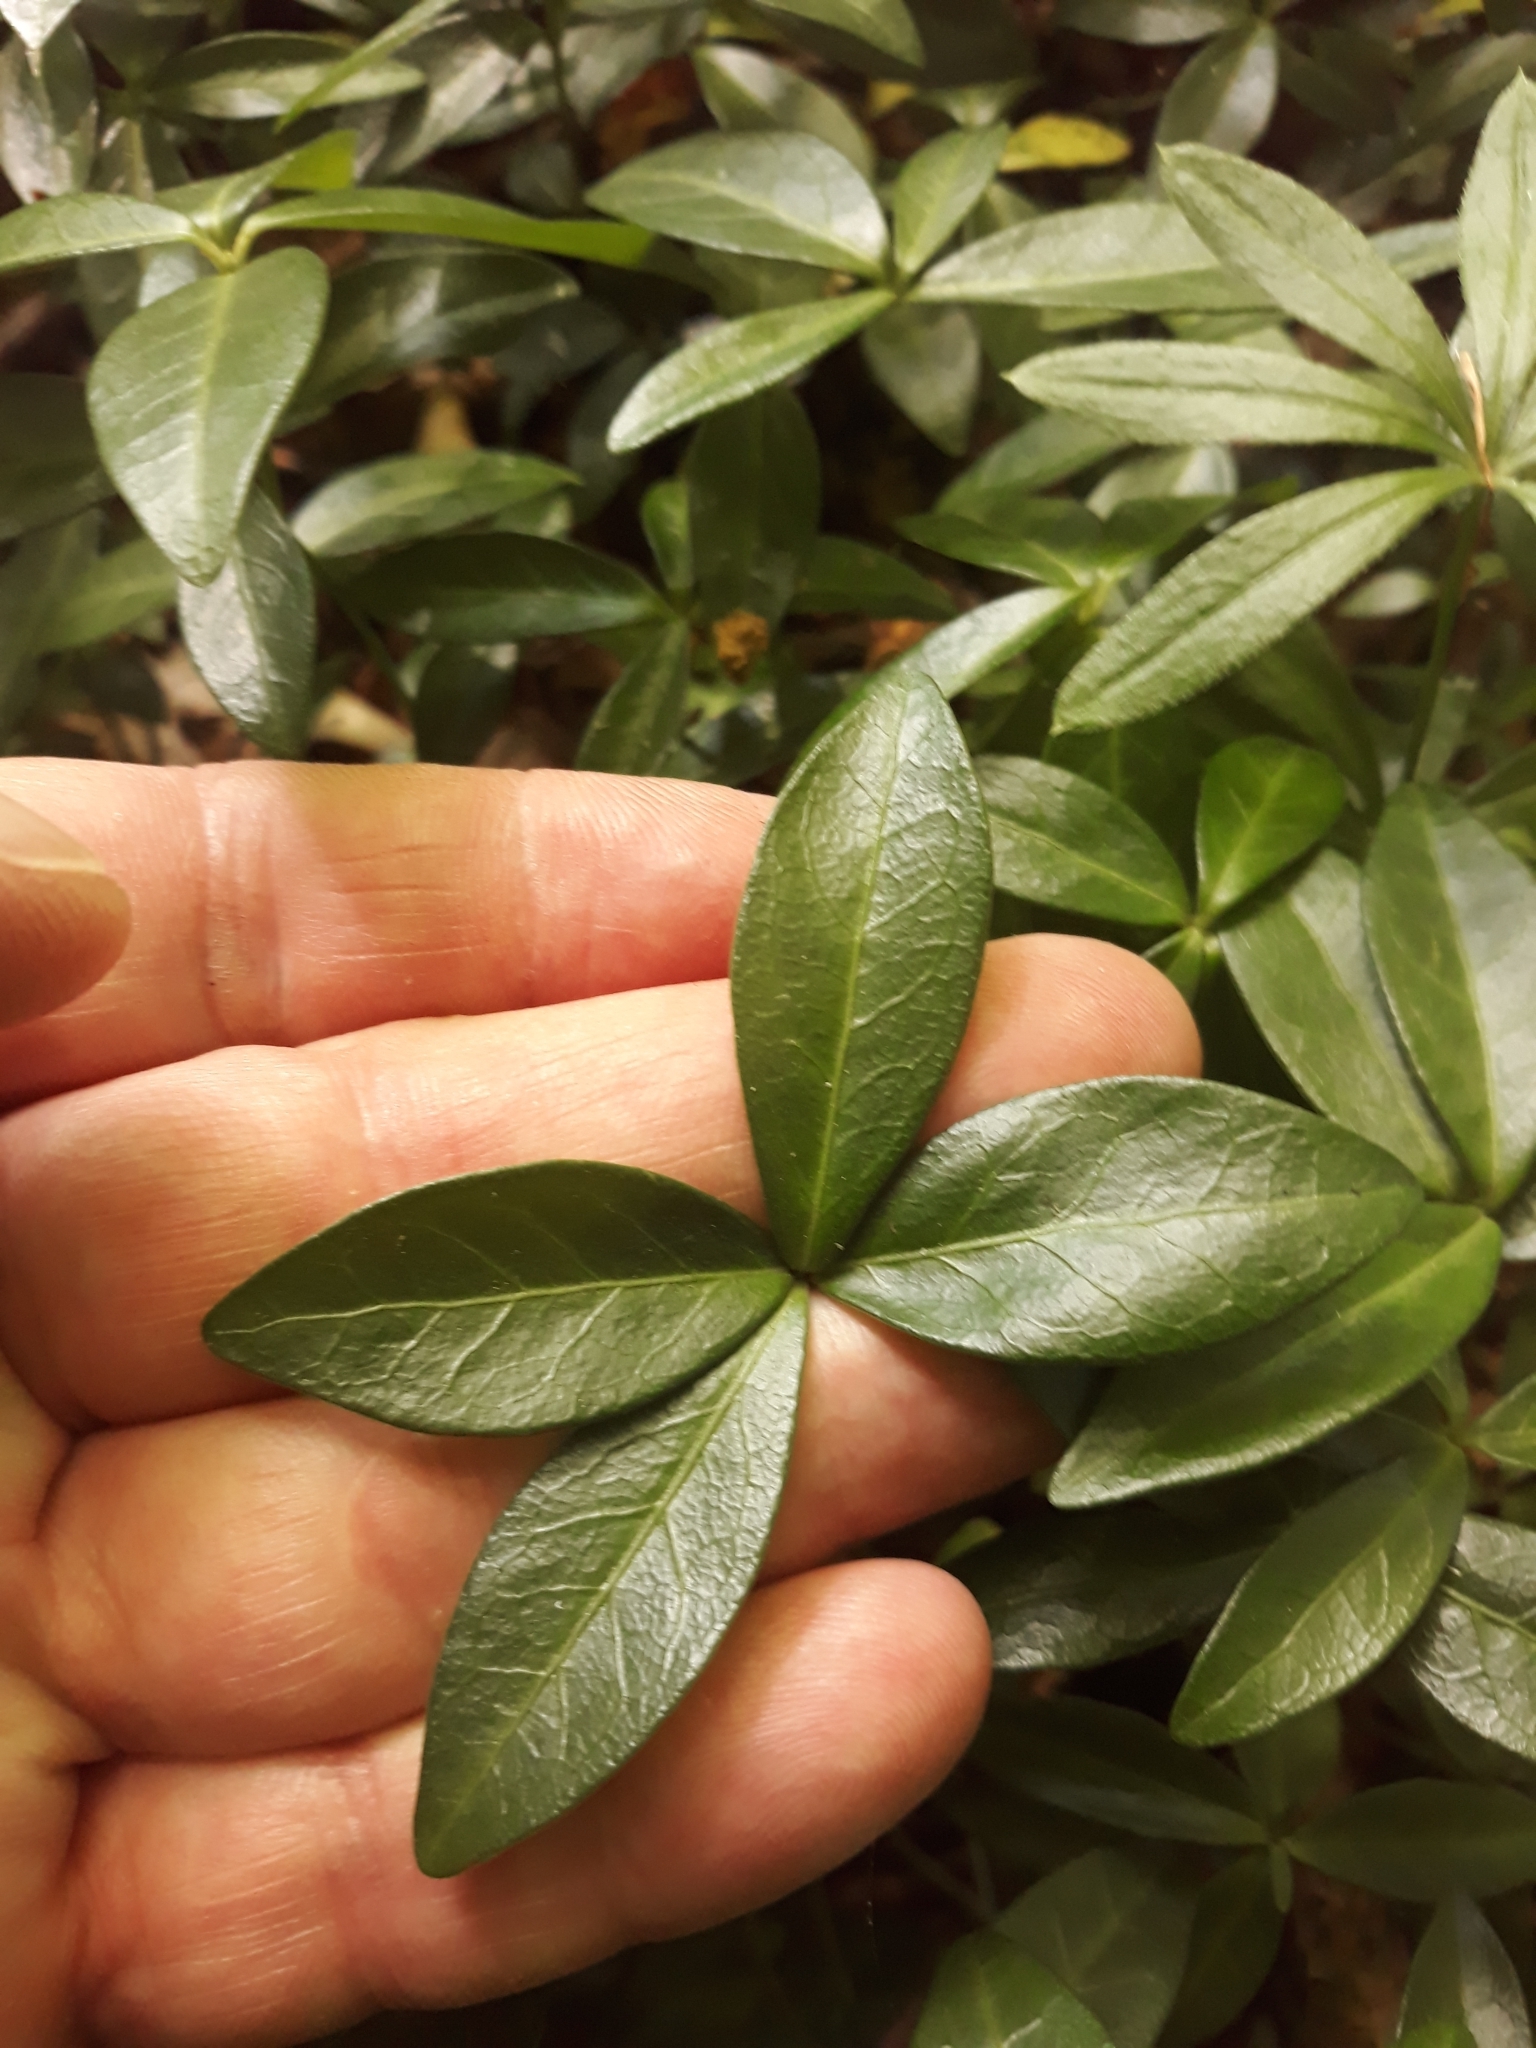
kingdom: Plantae
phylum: Tracheophyta
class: Magnoliopsida
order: Gentianales
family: Apocynaceae
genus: Vinca
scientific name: Vinca minor
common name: Lesser periwinkle
